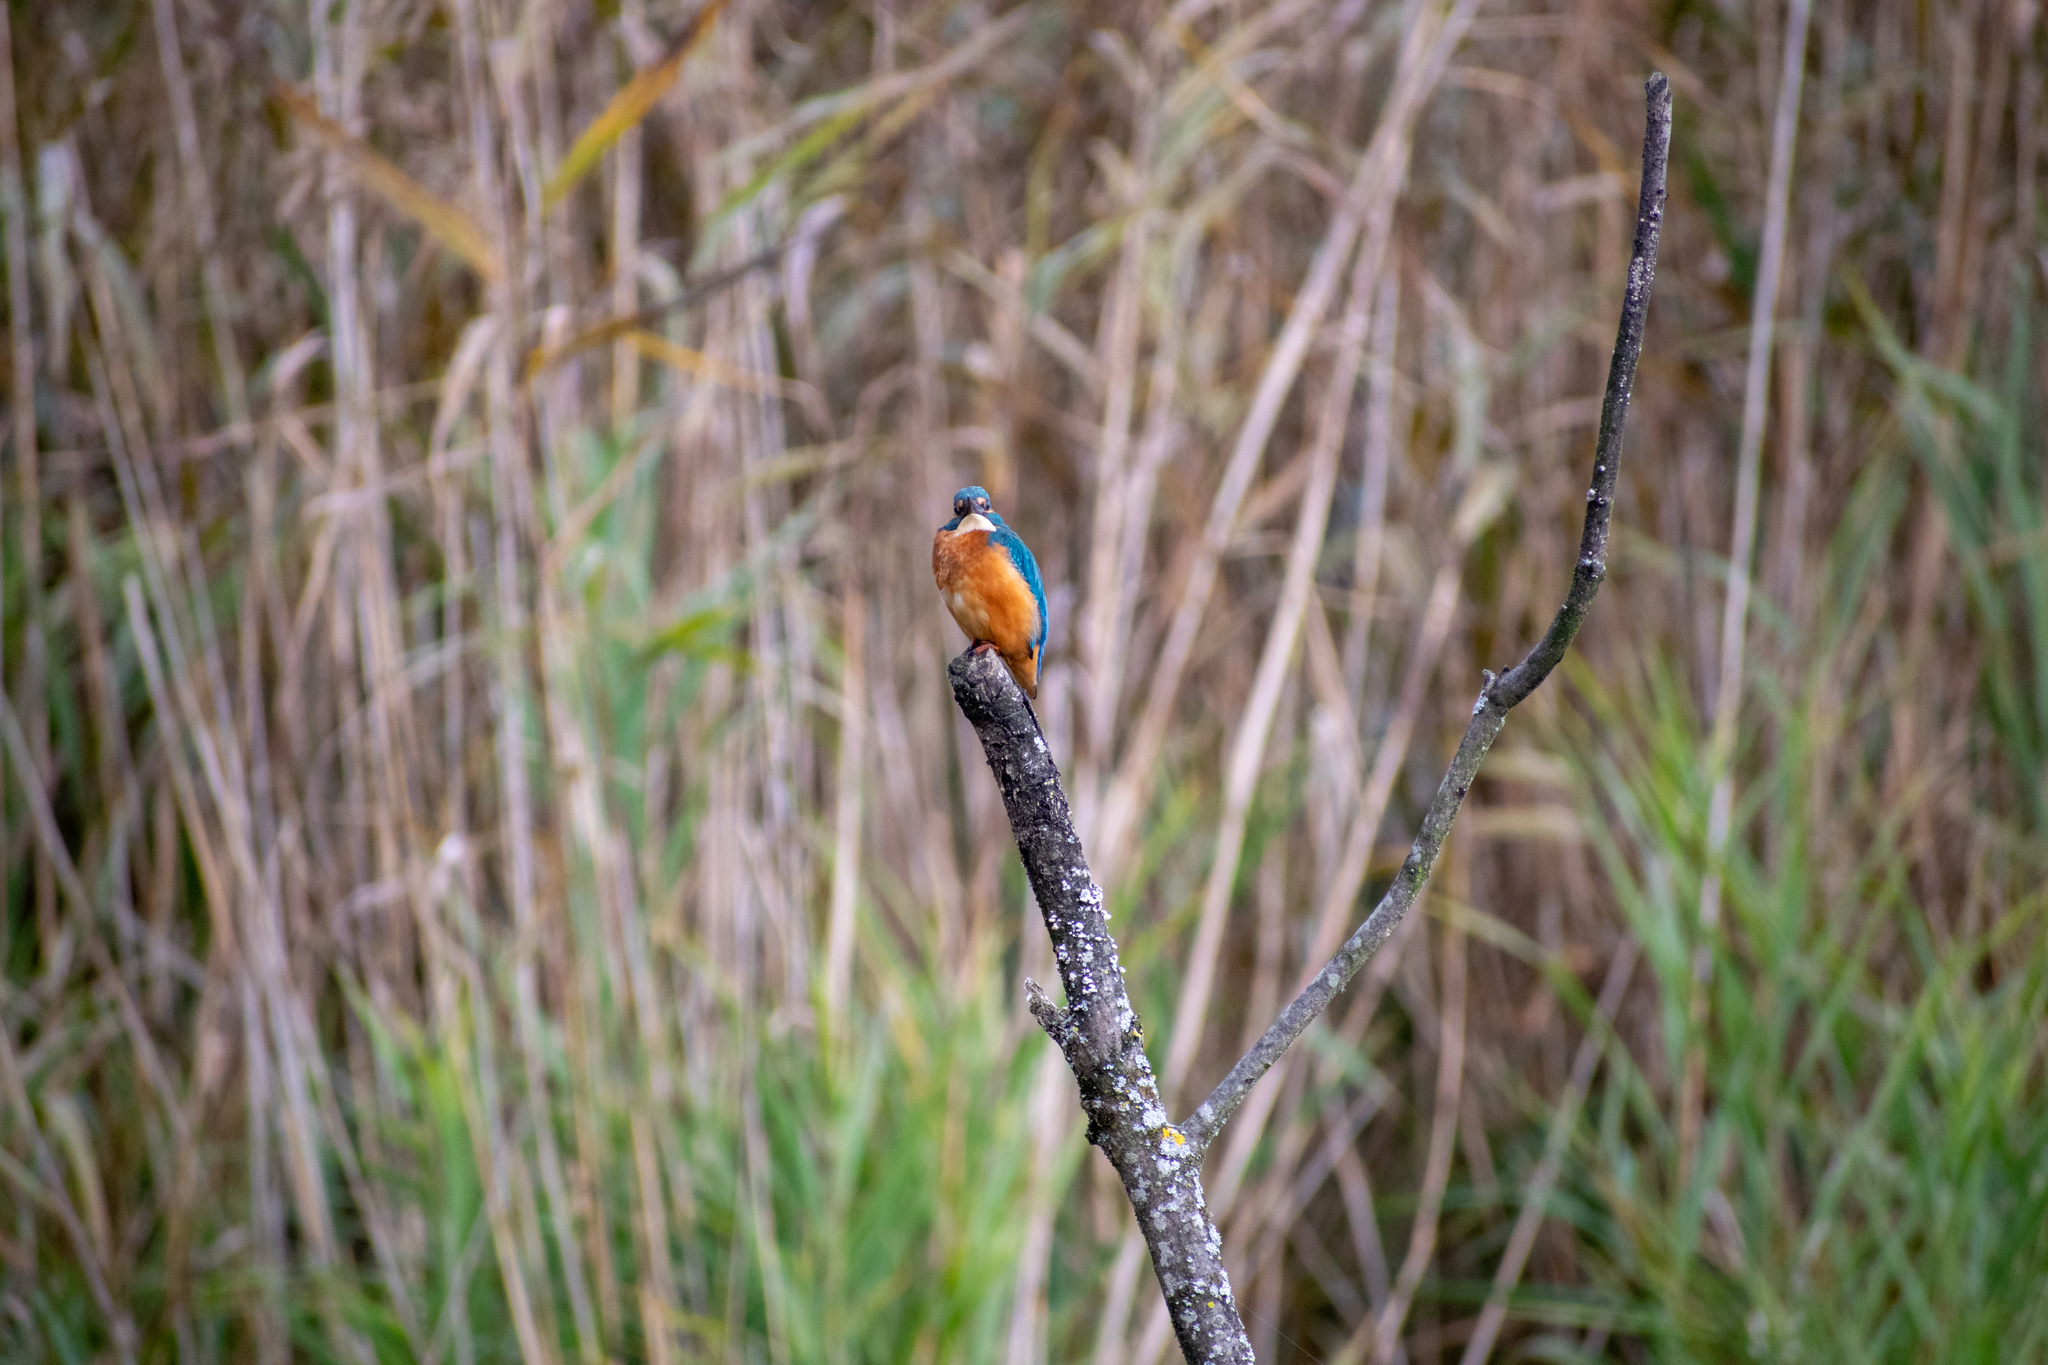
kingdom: Animalia
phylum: Chordata
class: Aves
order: Coraciiformes
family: Alcedinidae
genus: Alcedo
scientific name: Alcedo atthis
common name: Common kingfisher
